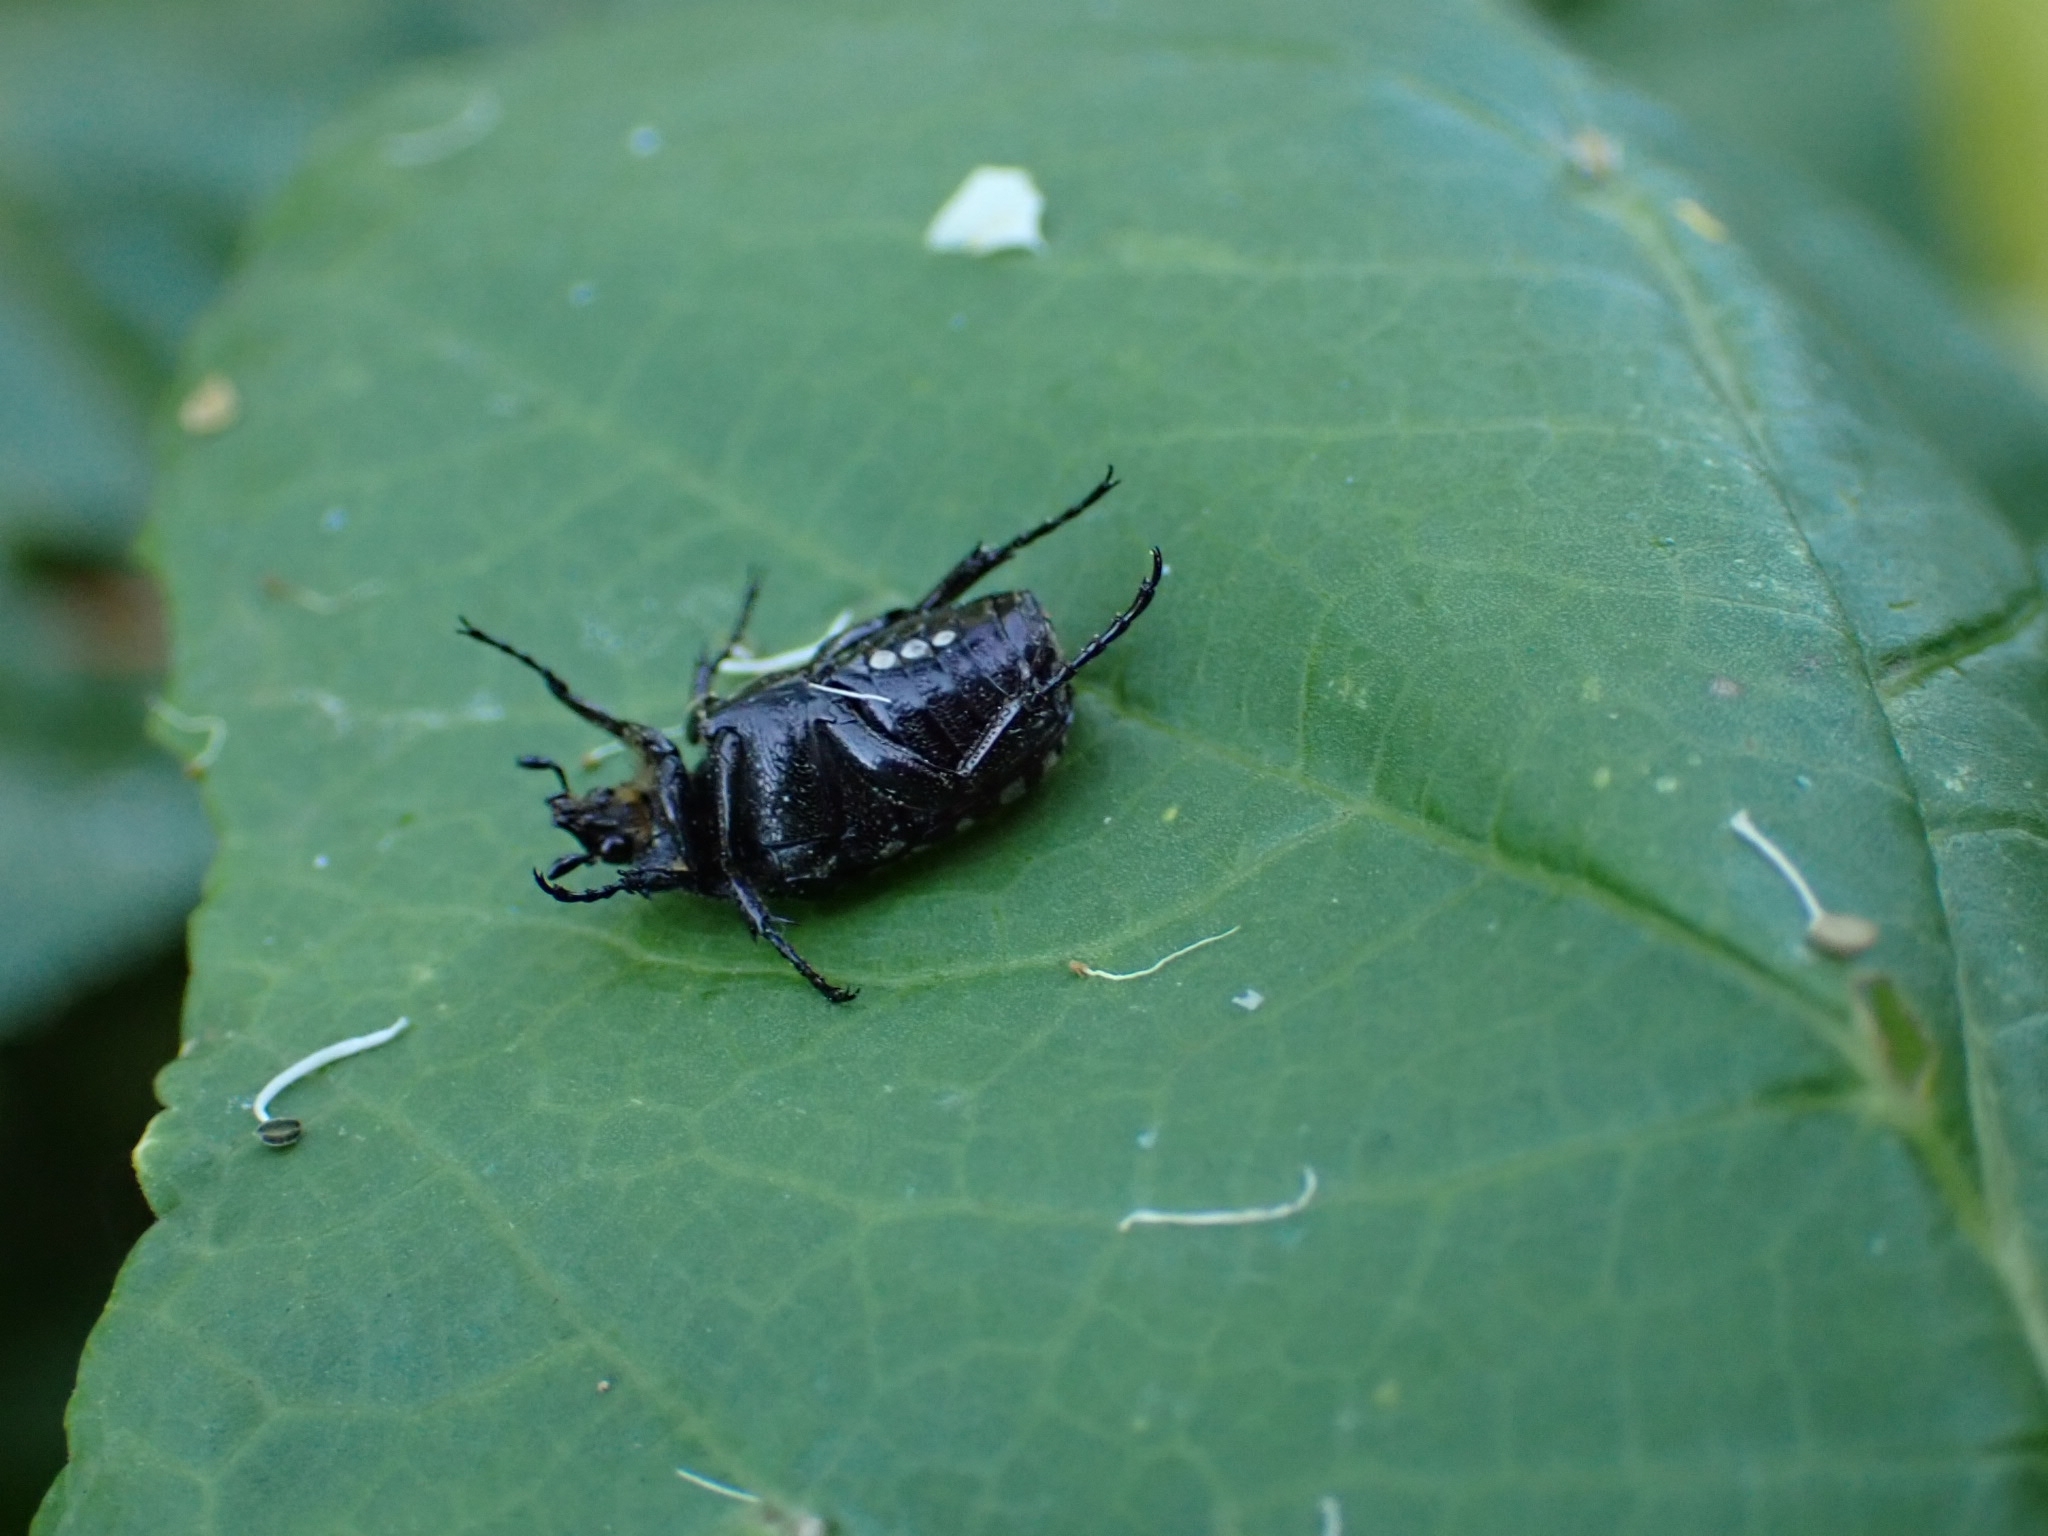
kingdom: Animalia
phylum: Arthropoda
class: Insecta
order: Coleoptera
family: Scarabaeidae
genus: Oxythyrea
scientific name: Oxythyrea funesta
